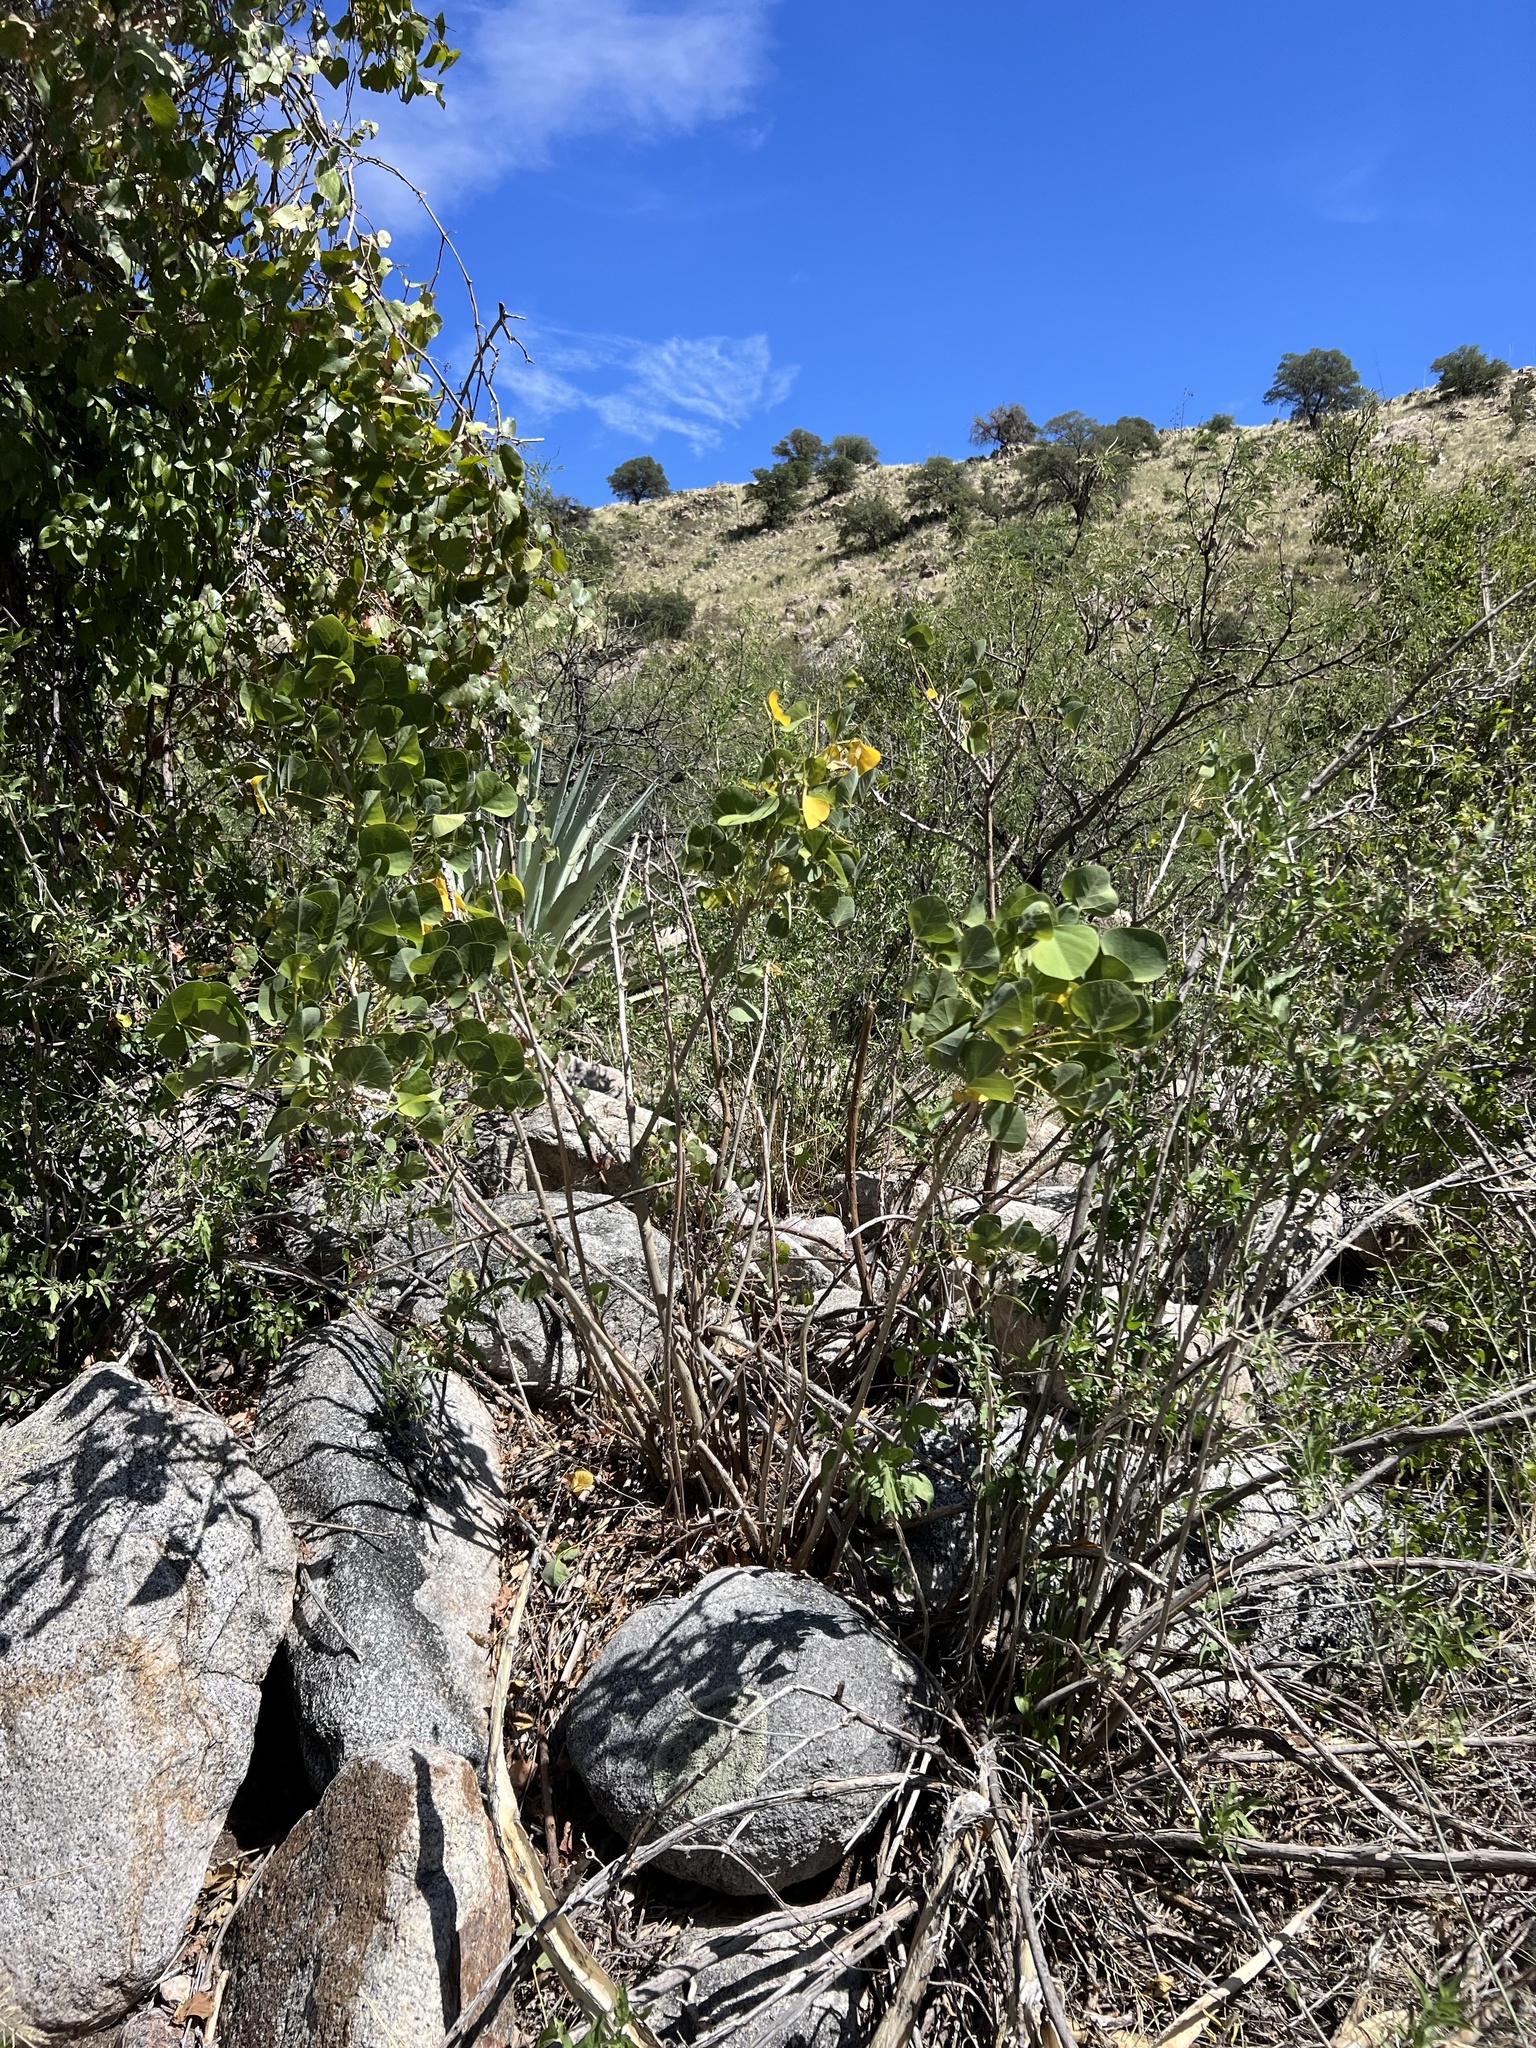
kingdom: Plantae
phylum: Tracheophyta
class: Magnoliopsida
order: Fabales
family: Fabaceae
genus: Erythrina
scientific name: Erythrina flabelliformis
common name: Chilicote
